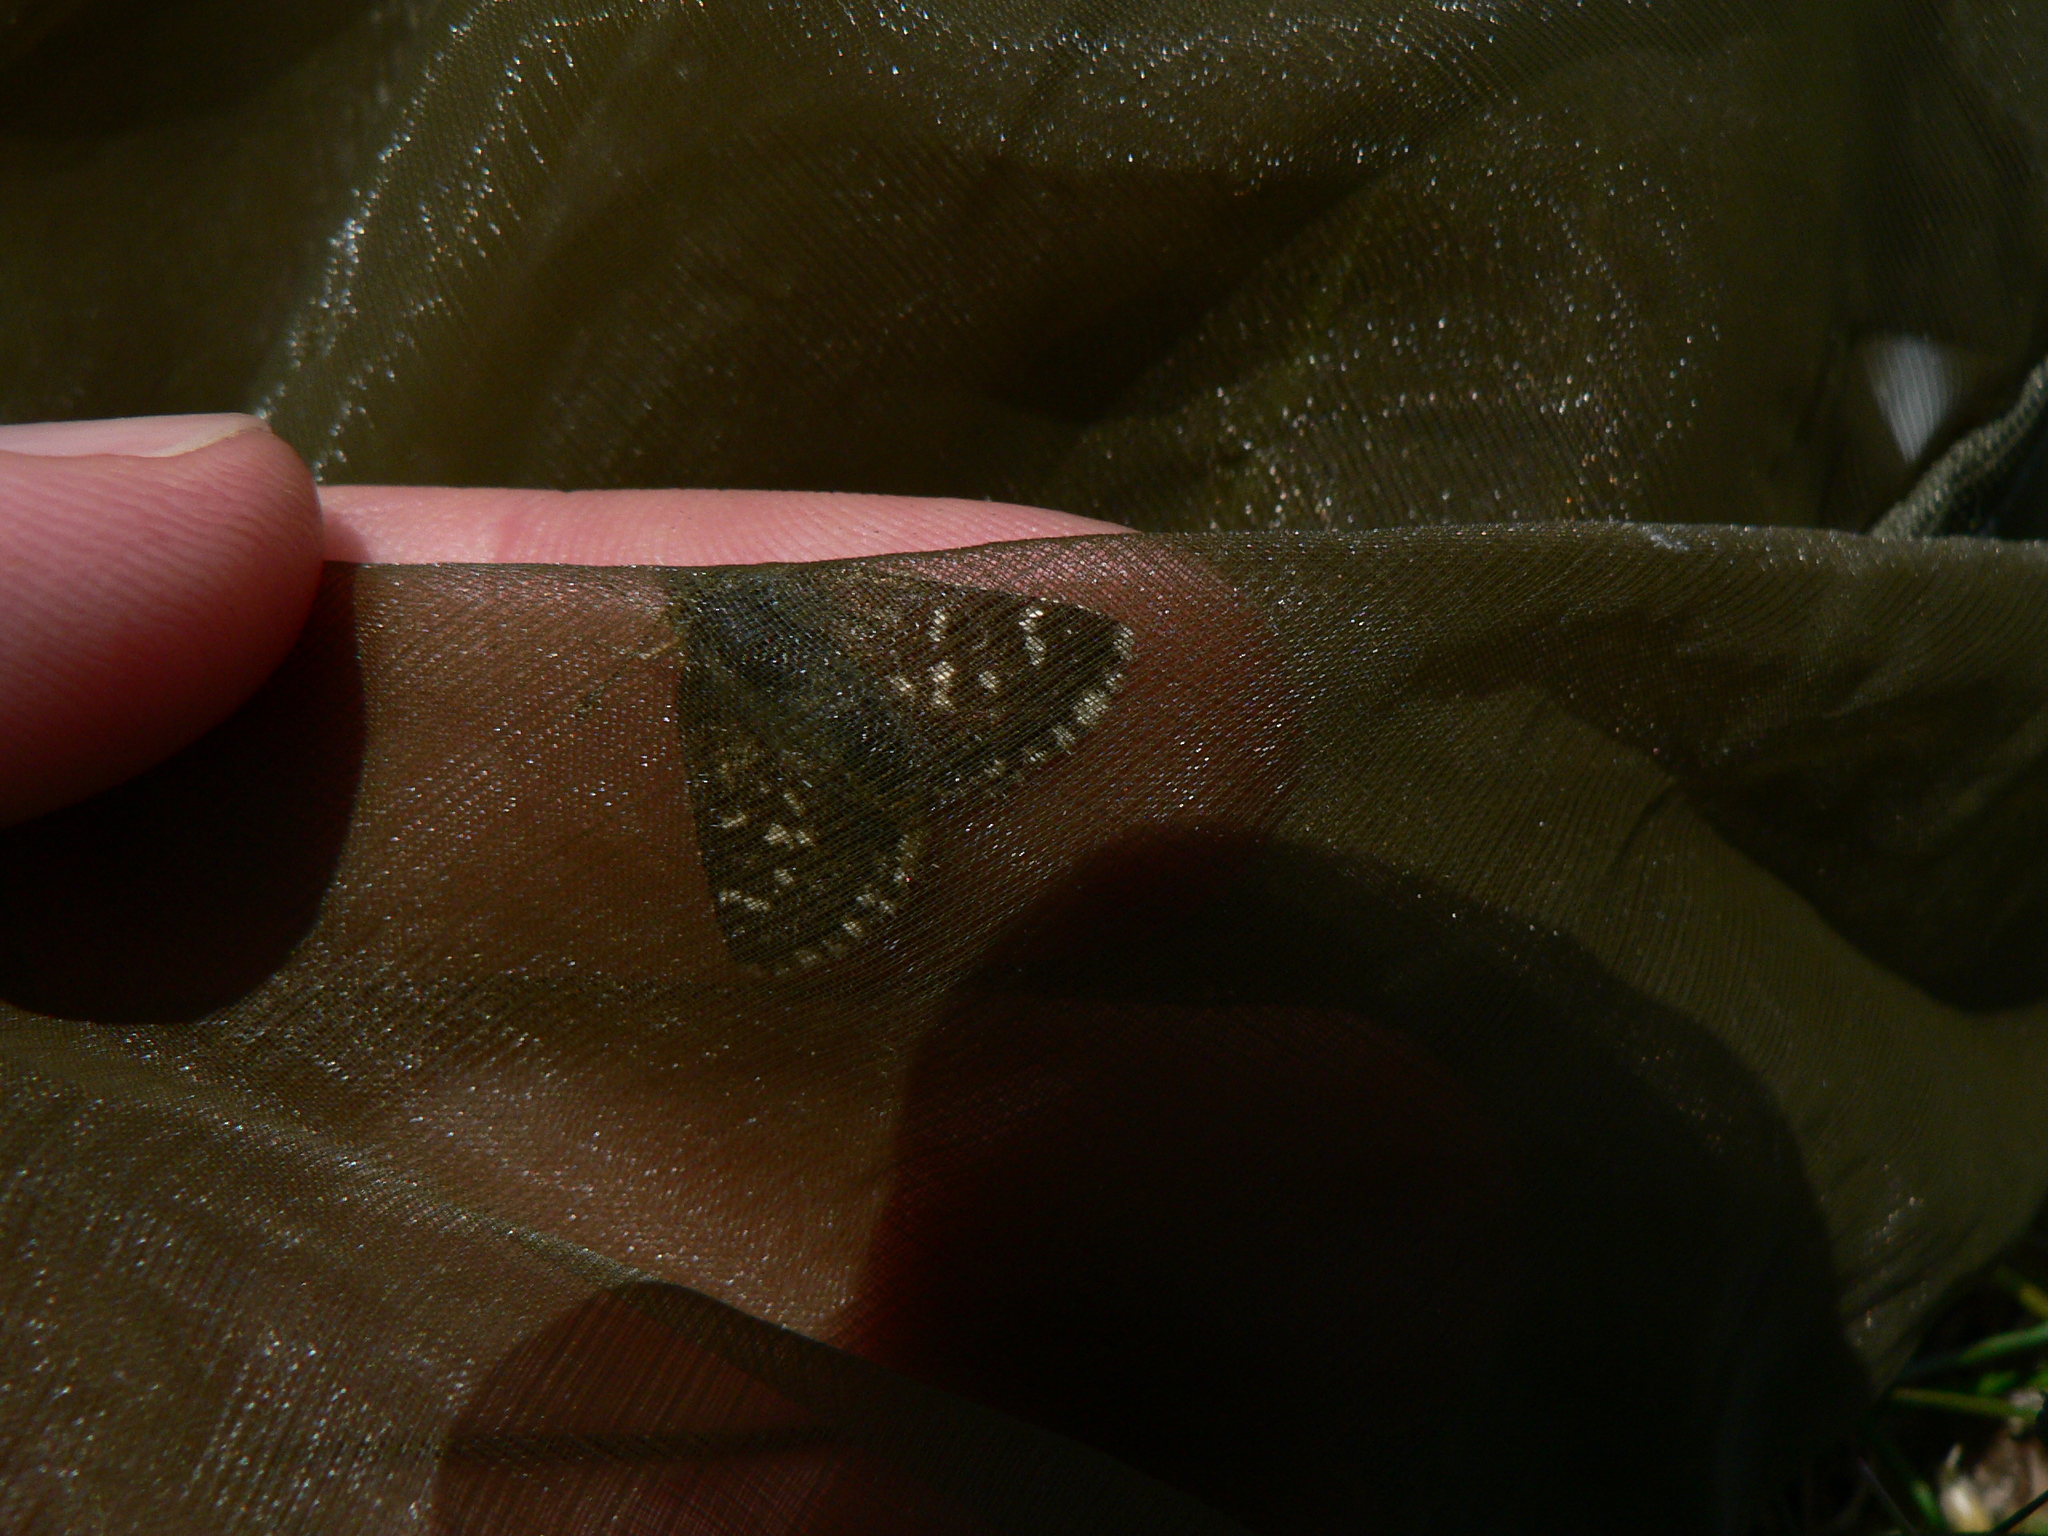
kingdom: Animalia
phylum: Arthropoda
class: Insecta
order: Lepidoptera
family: Hesperiidae
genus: Spialia
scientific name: Spialia sertorius
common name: Red underwing skipper
